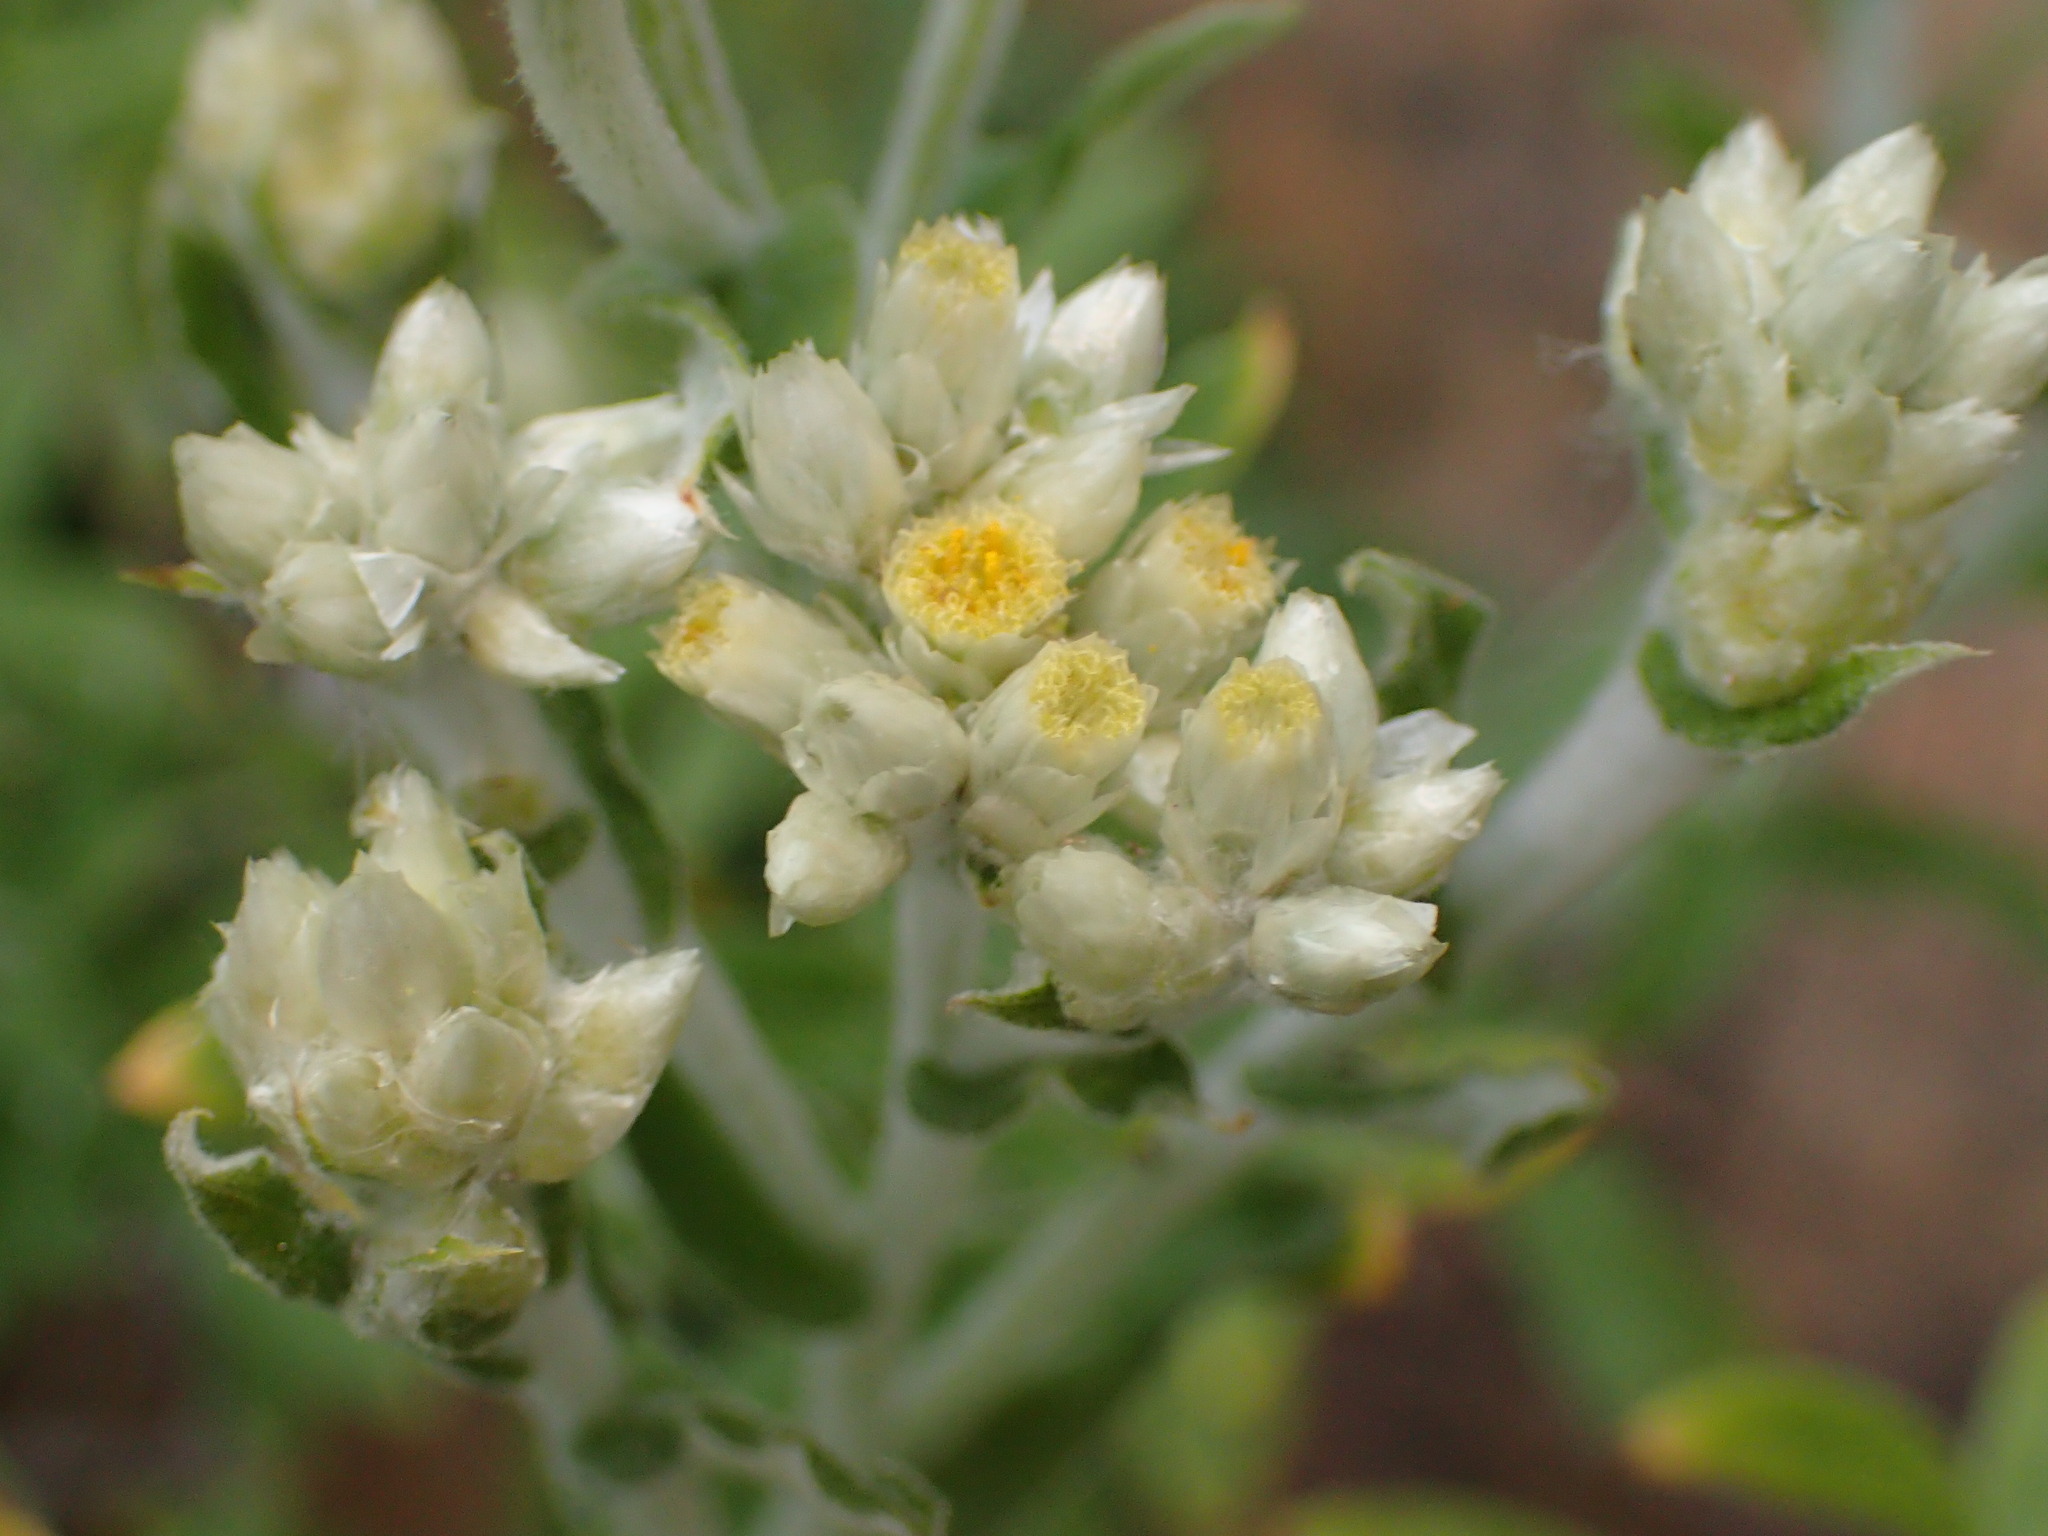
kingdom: Plantae
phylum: Tracheophyta
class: Magnoliopsida
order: Asterales
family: Asteraceae
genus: Pseudognaphalium
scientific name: Pseudognaphalium biolettii
